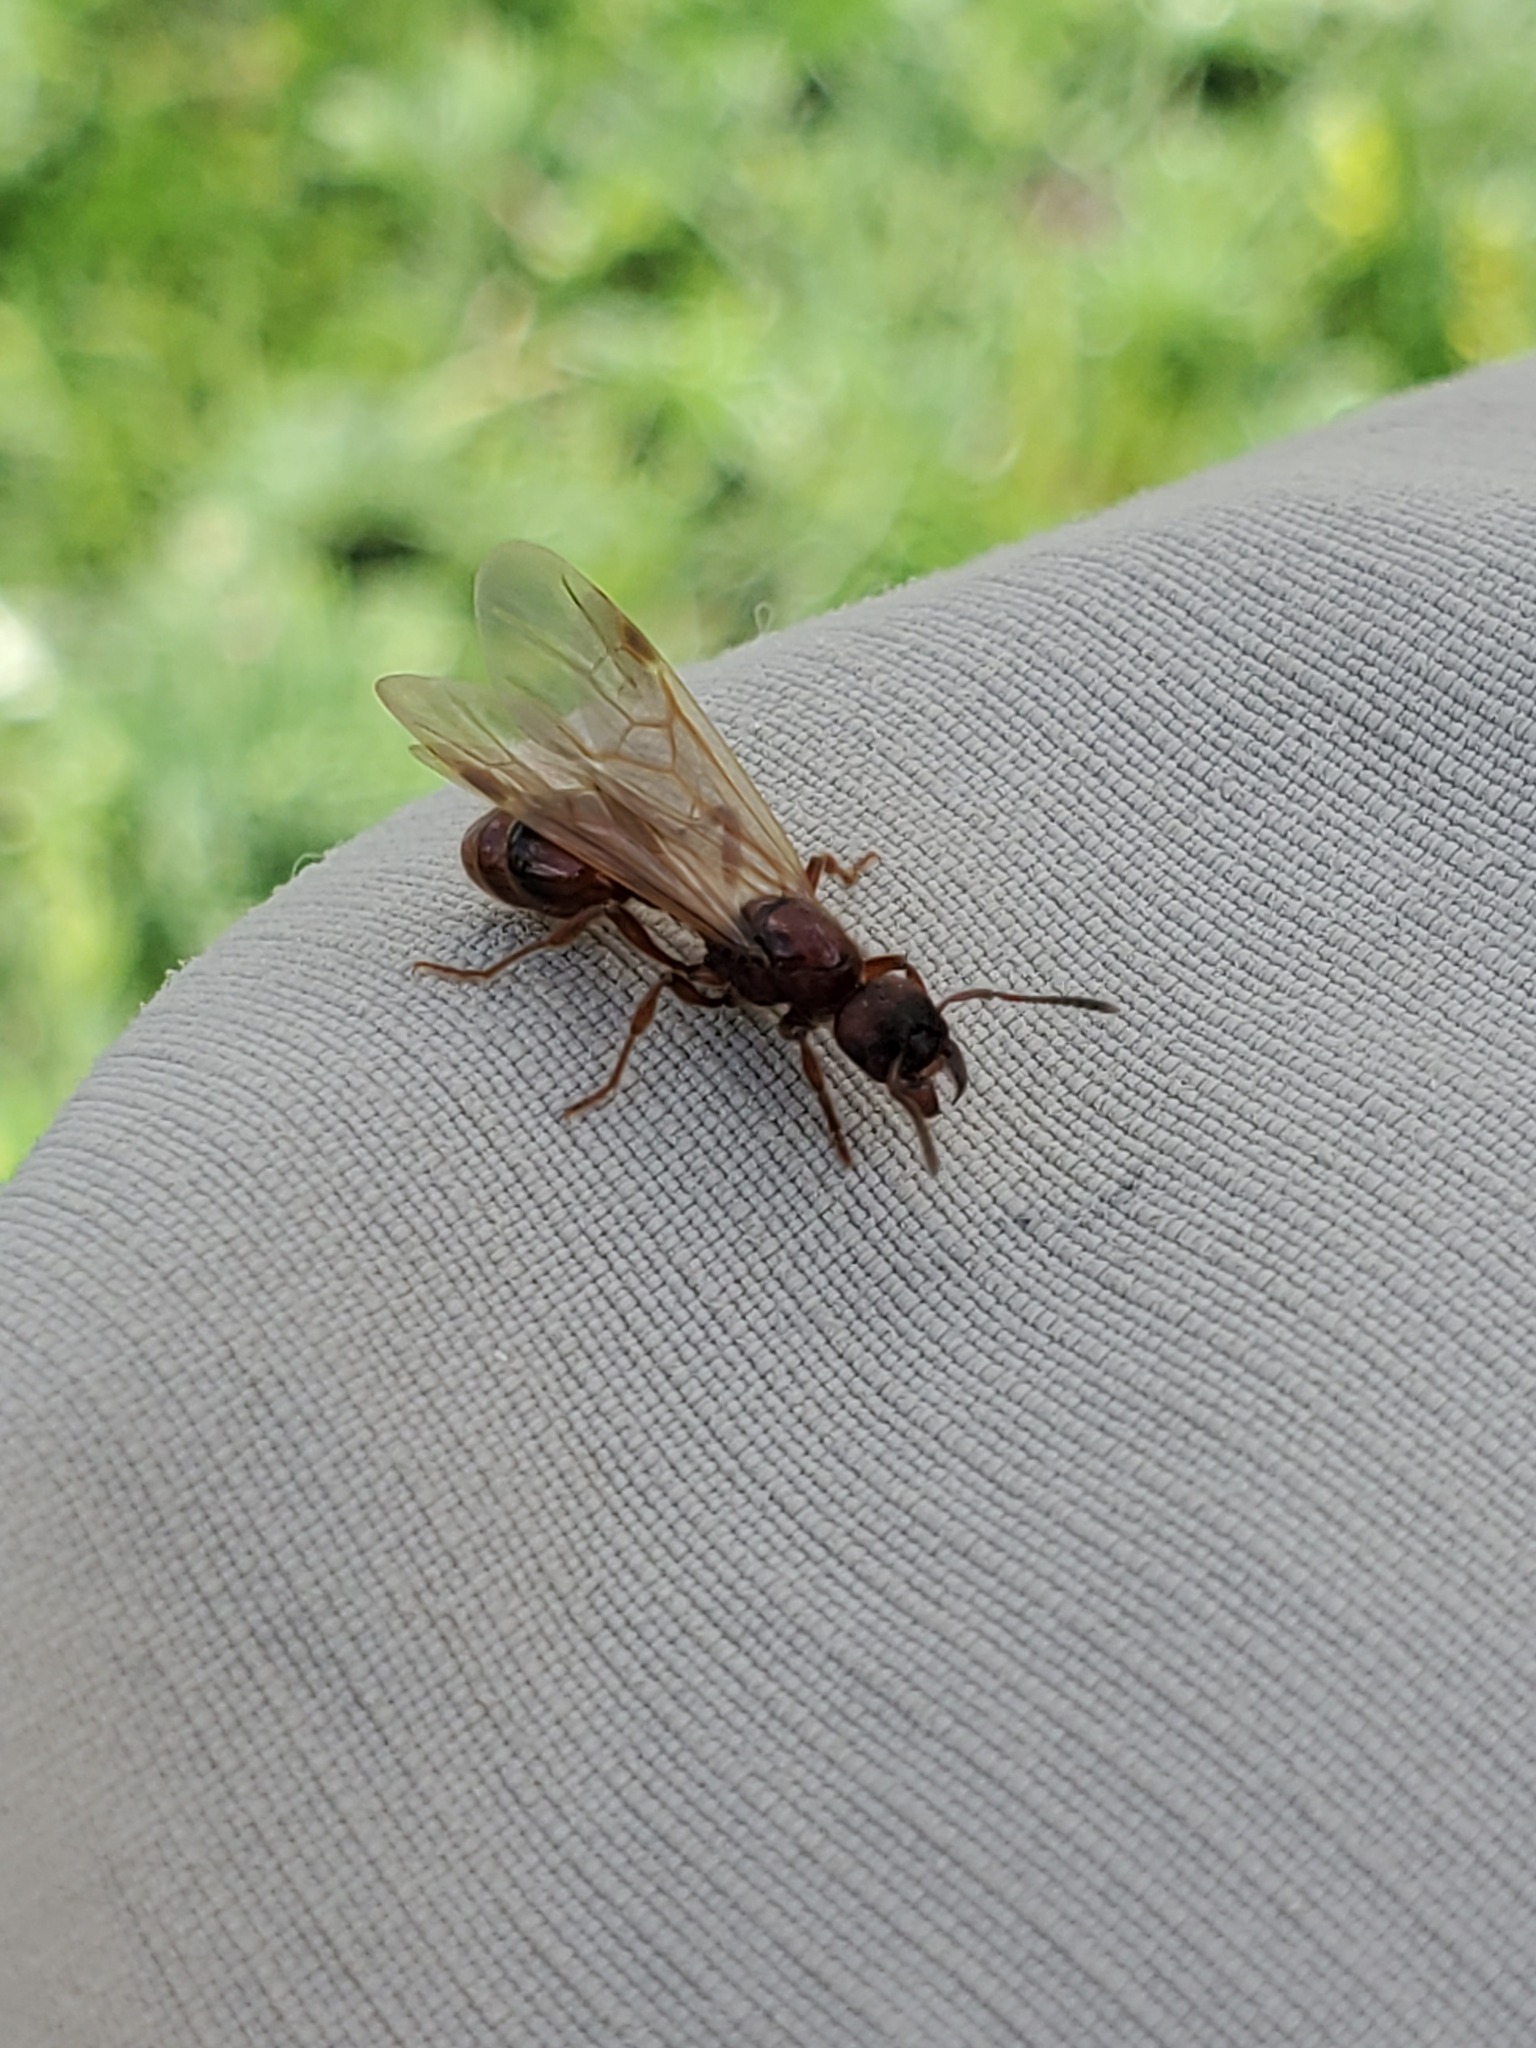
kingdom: Animalia
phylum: Arthropoda
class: Insecta
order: Hymenoptera
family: Formicidae
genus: Manica
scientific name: Manica rubida
